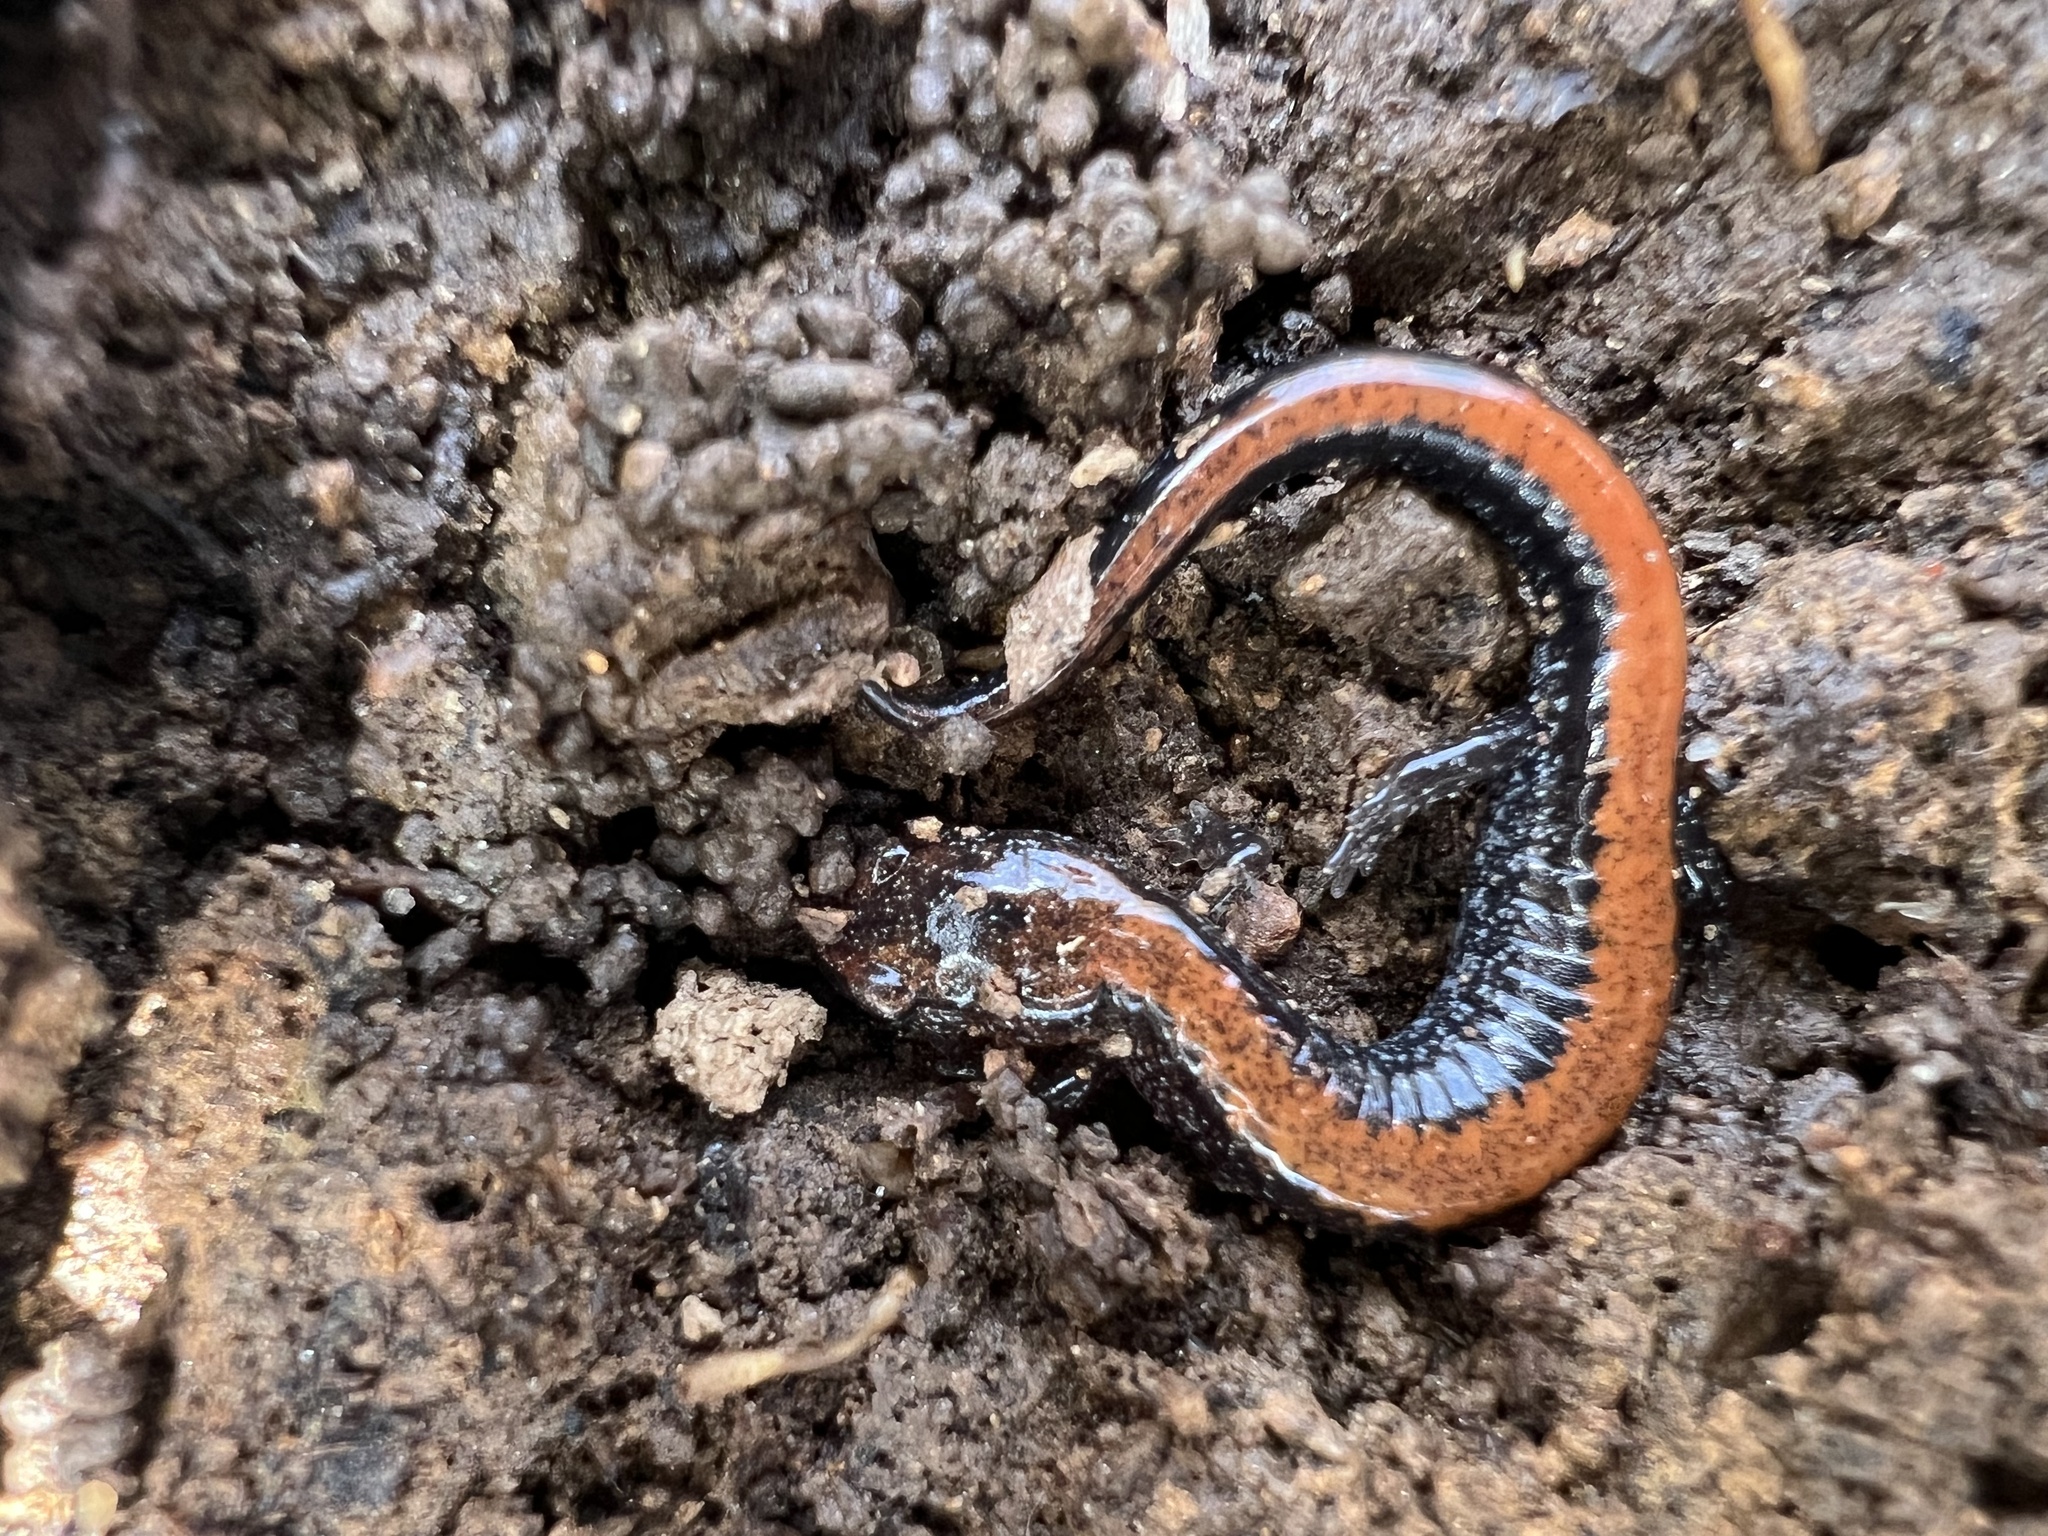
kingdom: Animalia
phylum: Chordata
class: Amphibia
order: Caudata
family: Plethodontidae
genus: Plethodon
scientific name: Plethodon cinereus
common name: Redback salamander
